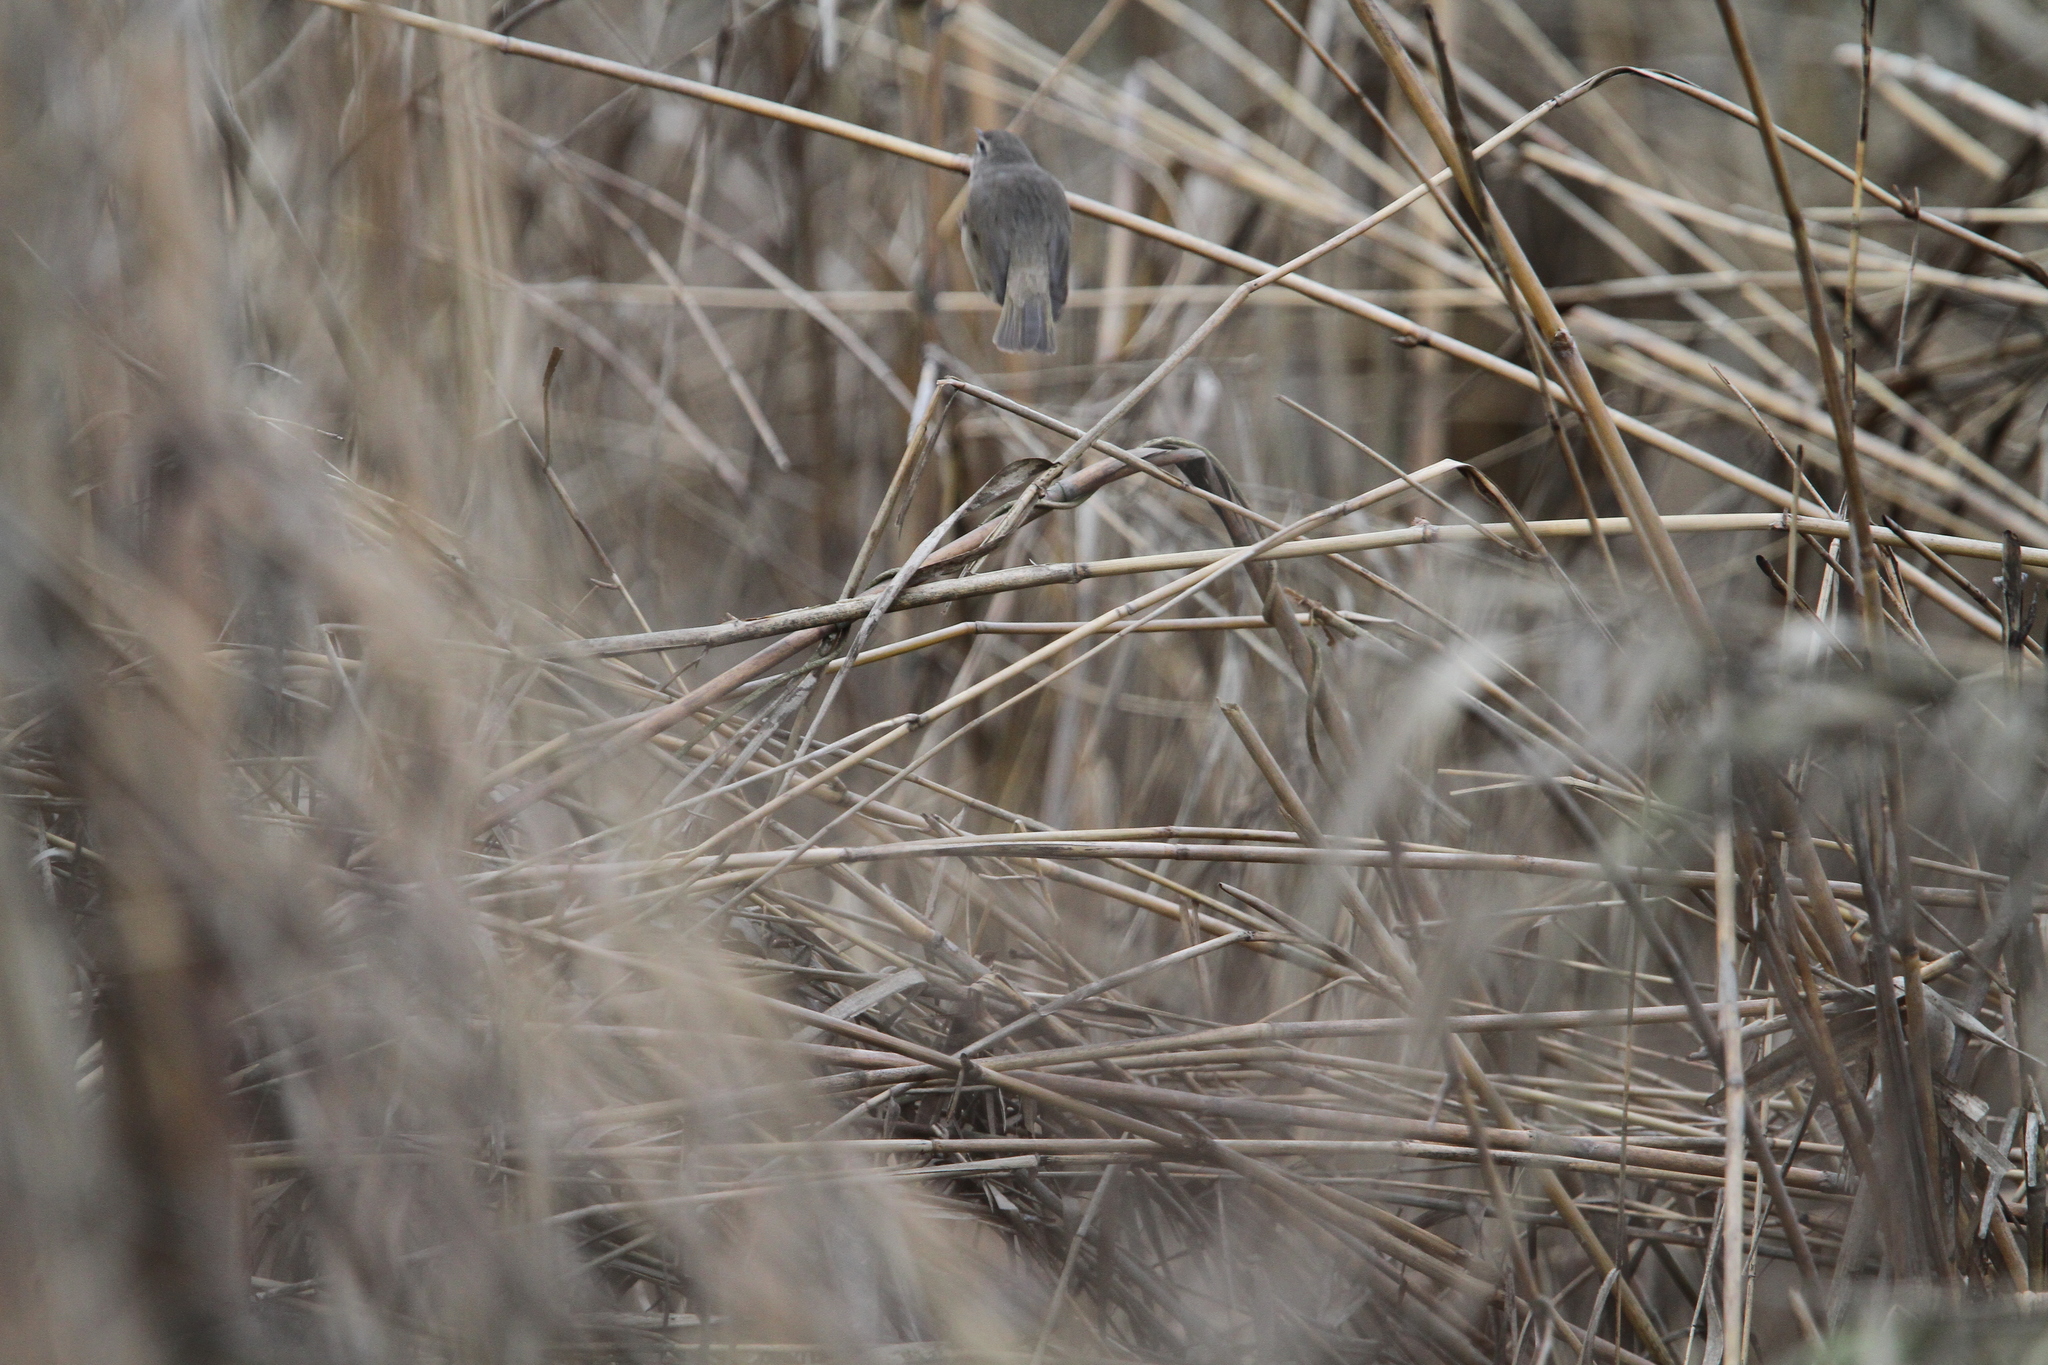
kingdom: Animalia
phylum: Chordata
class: Aves
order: Passeriformes
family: Phylloscopidae
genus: Phylloscopus
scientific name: Phylloscopus fuscatus
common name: Dusky warbler
